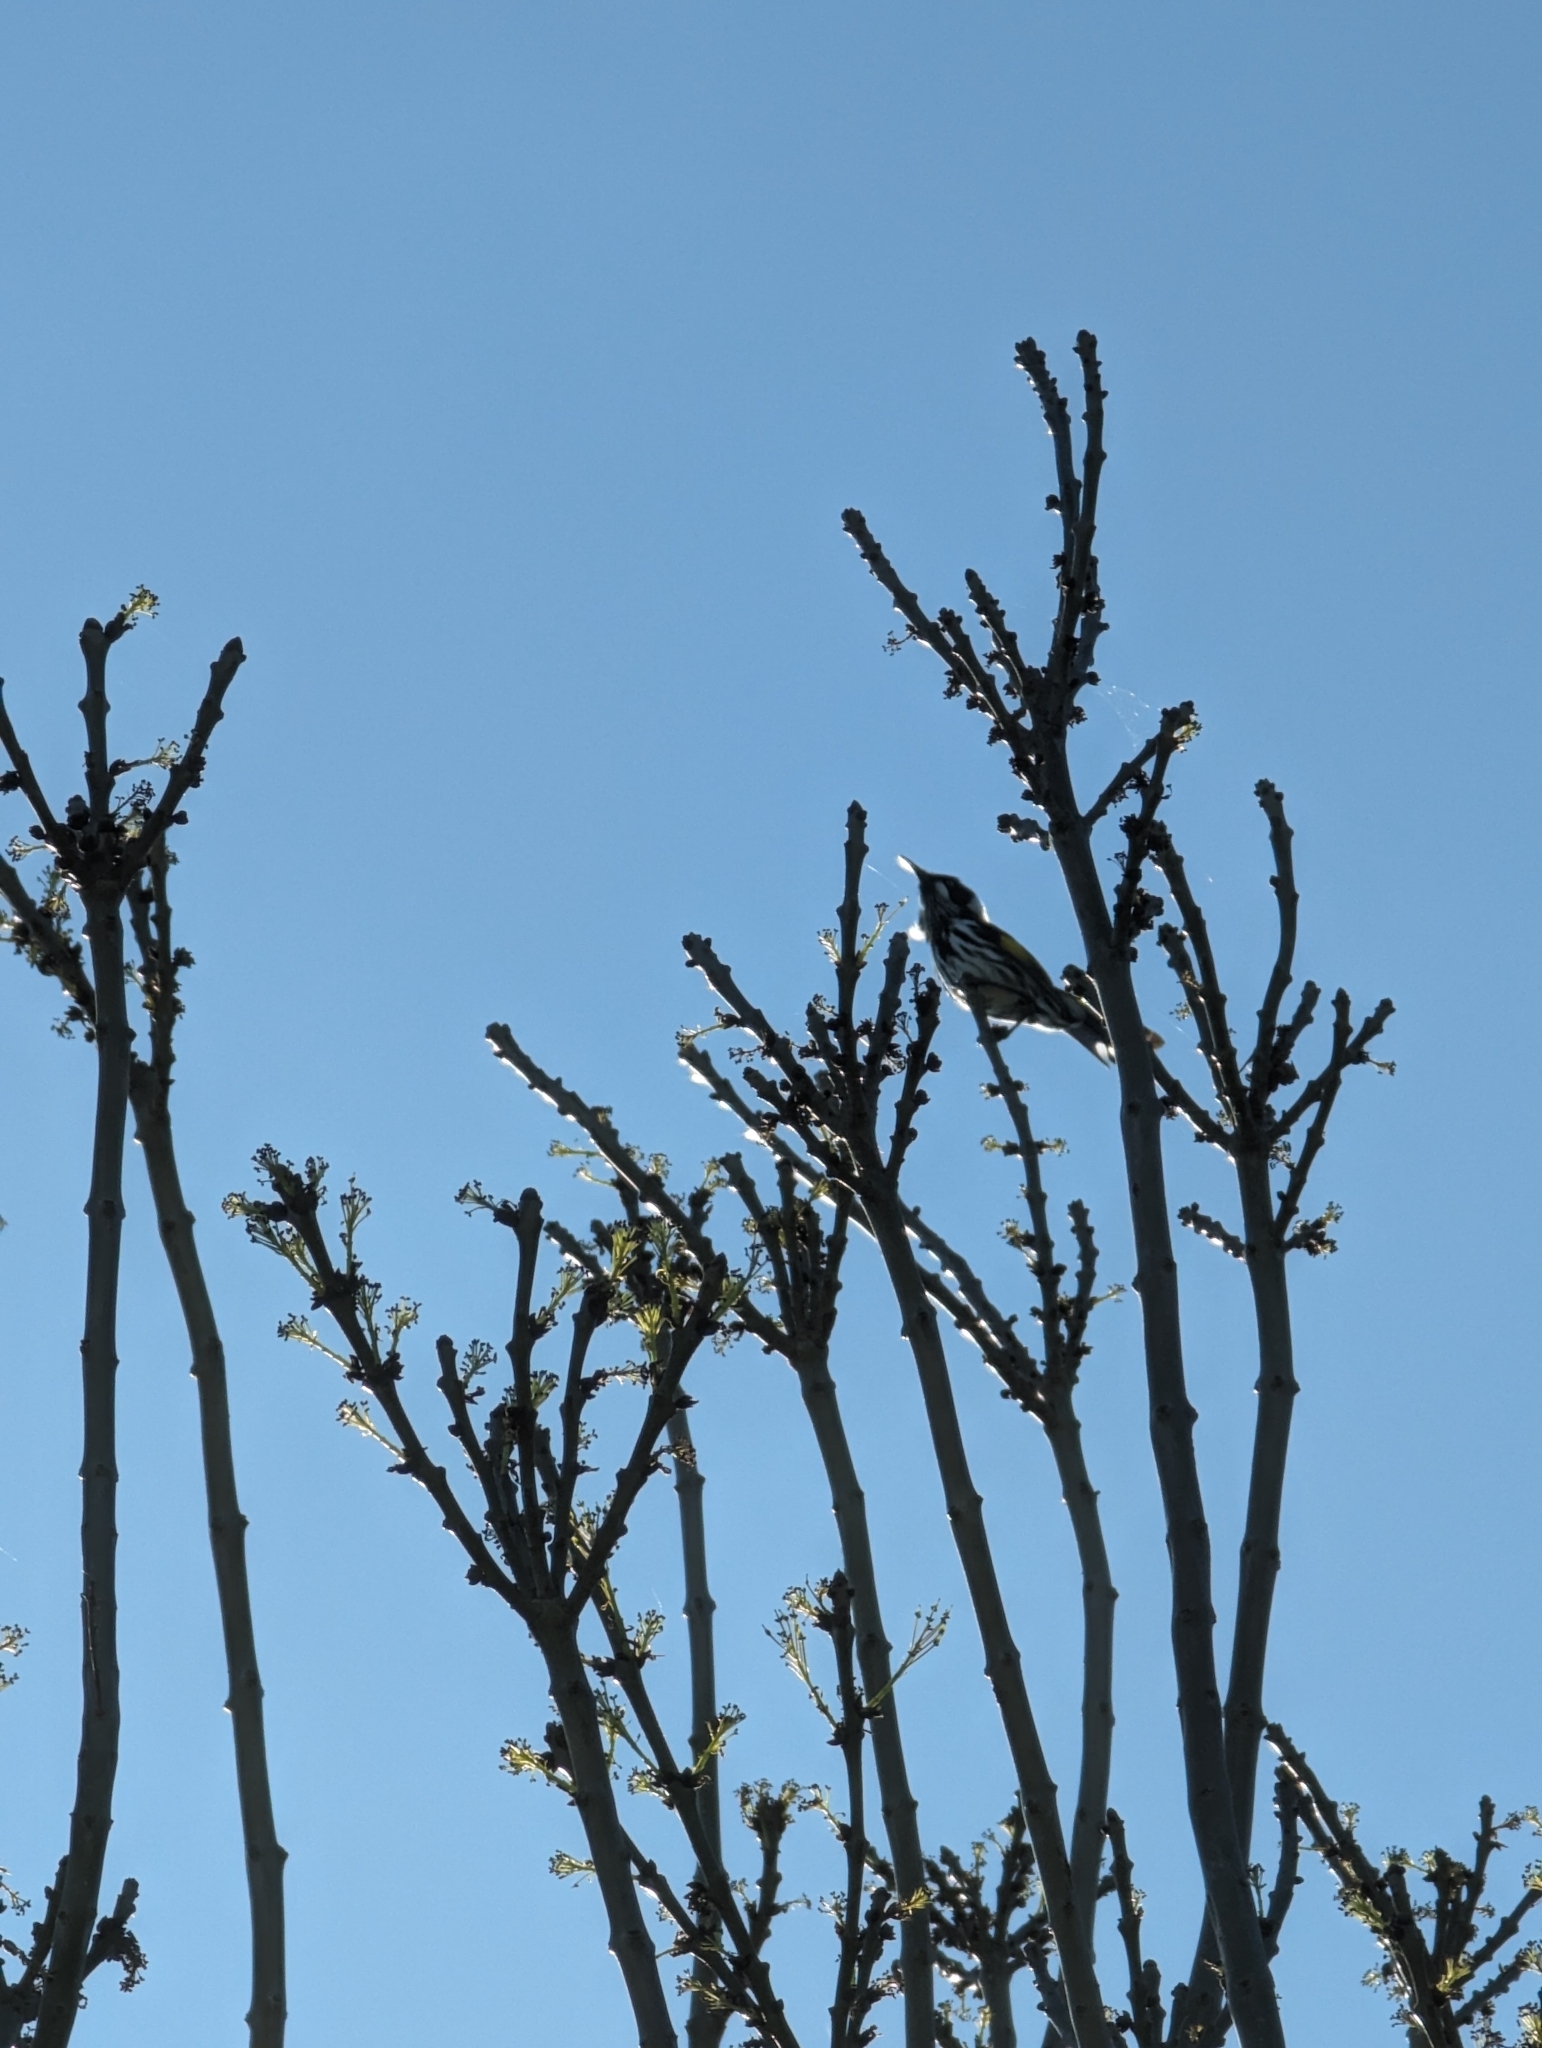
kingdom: Animalia
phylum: Chordata
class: Aves
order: Passeriformes
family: Meliphagidae
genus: Phylidonyris
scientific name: Phylidonyris novaehollandiae
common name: New holland honeyeater
